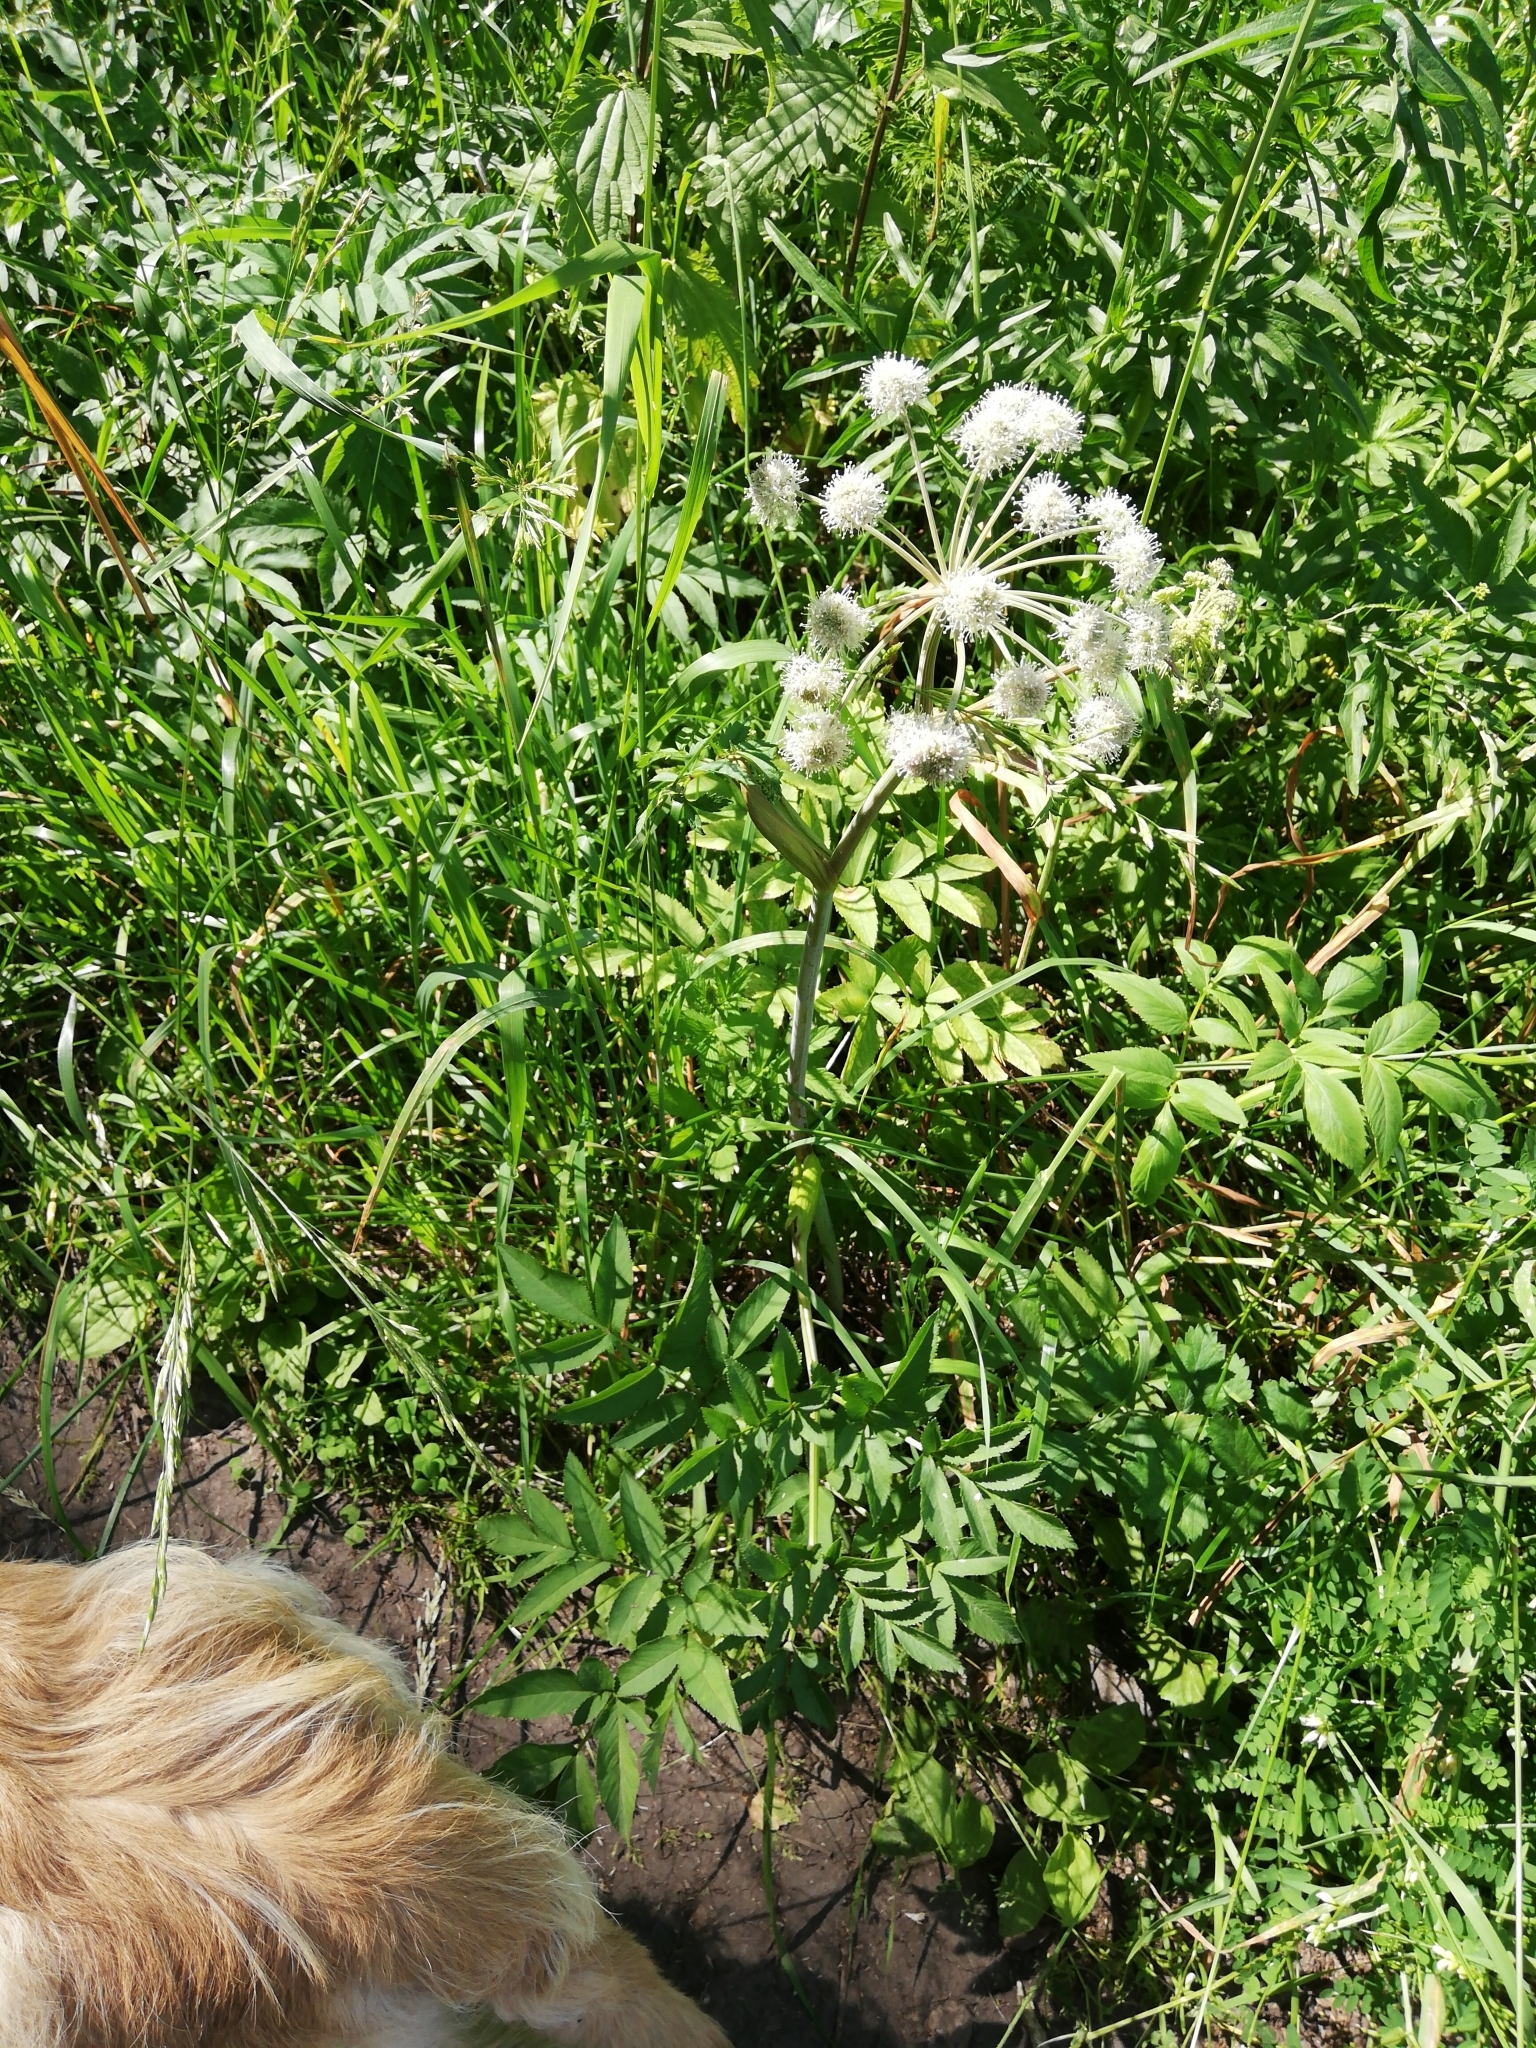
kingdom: Plantae
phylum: Tracheophyta
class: Magnoliopsida
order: Apiales
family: Apiaceae
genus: Angelica
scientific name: Angelica sylvestris
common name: Wild angelica
